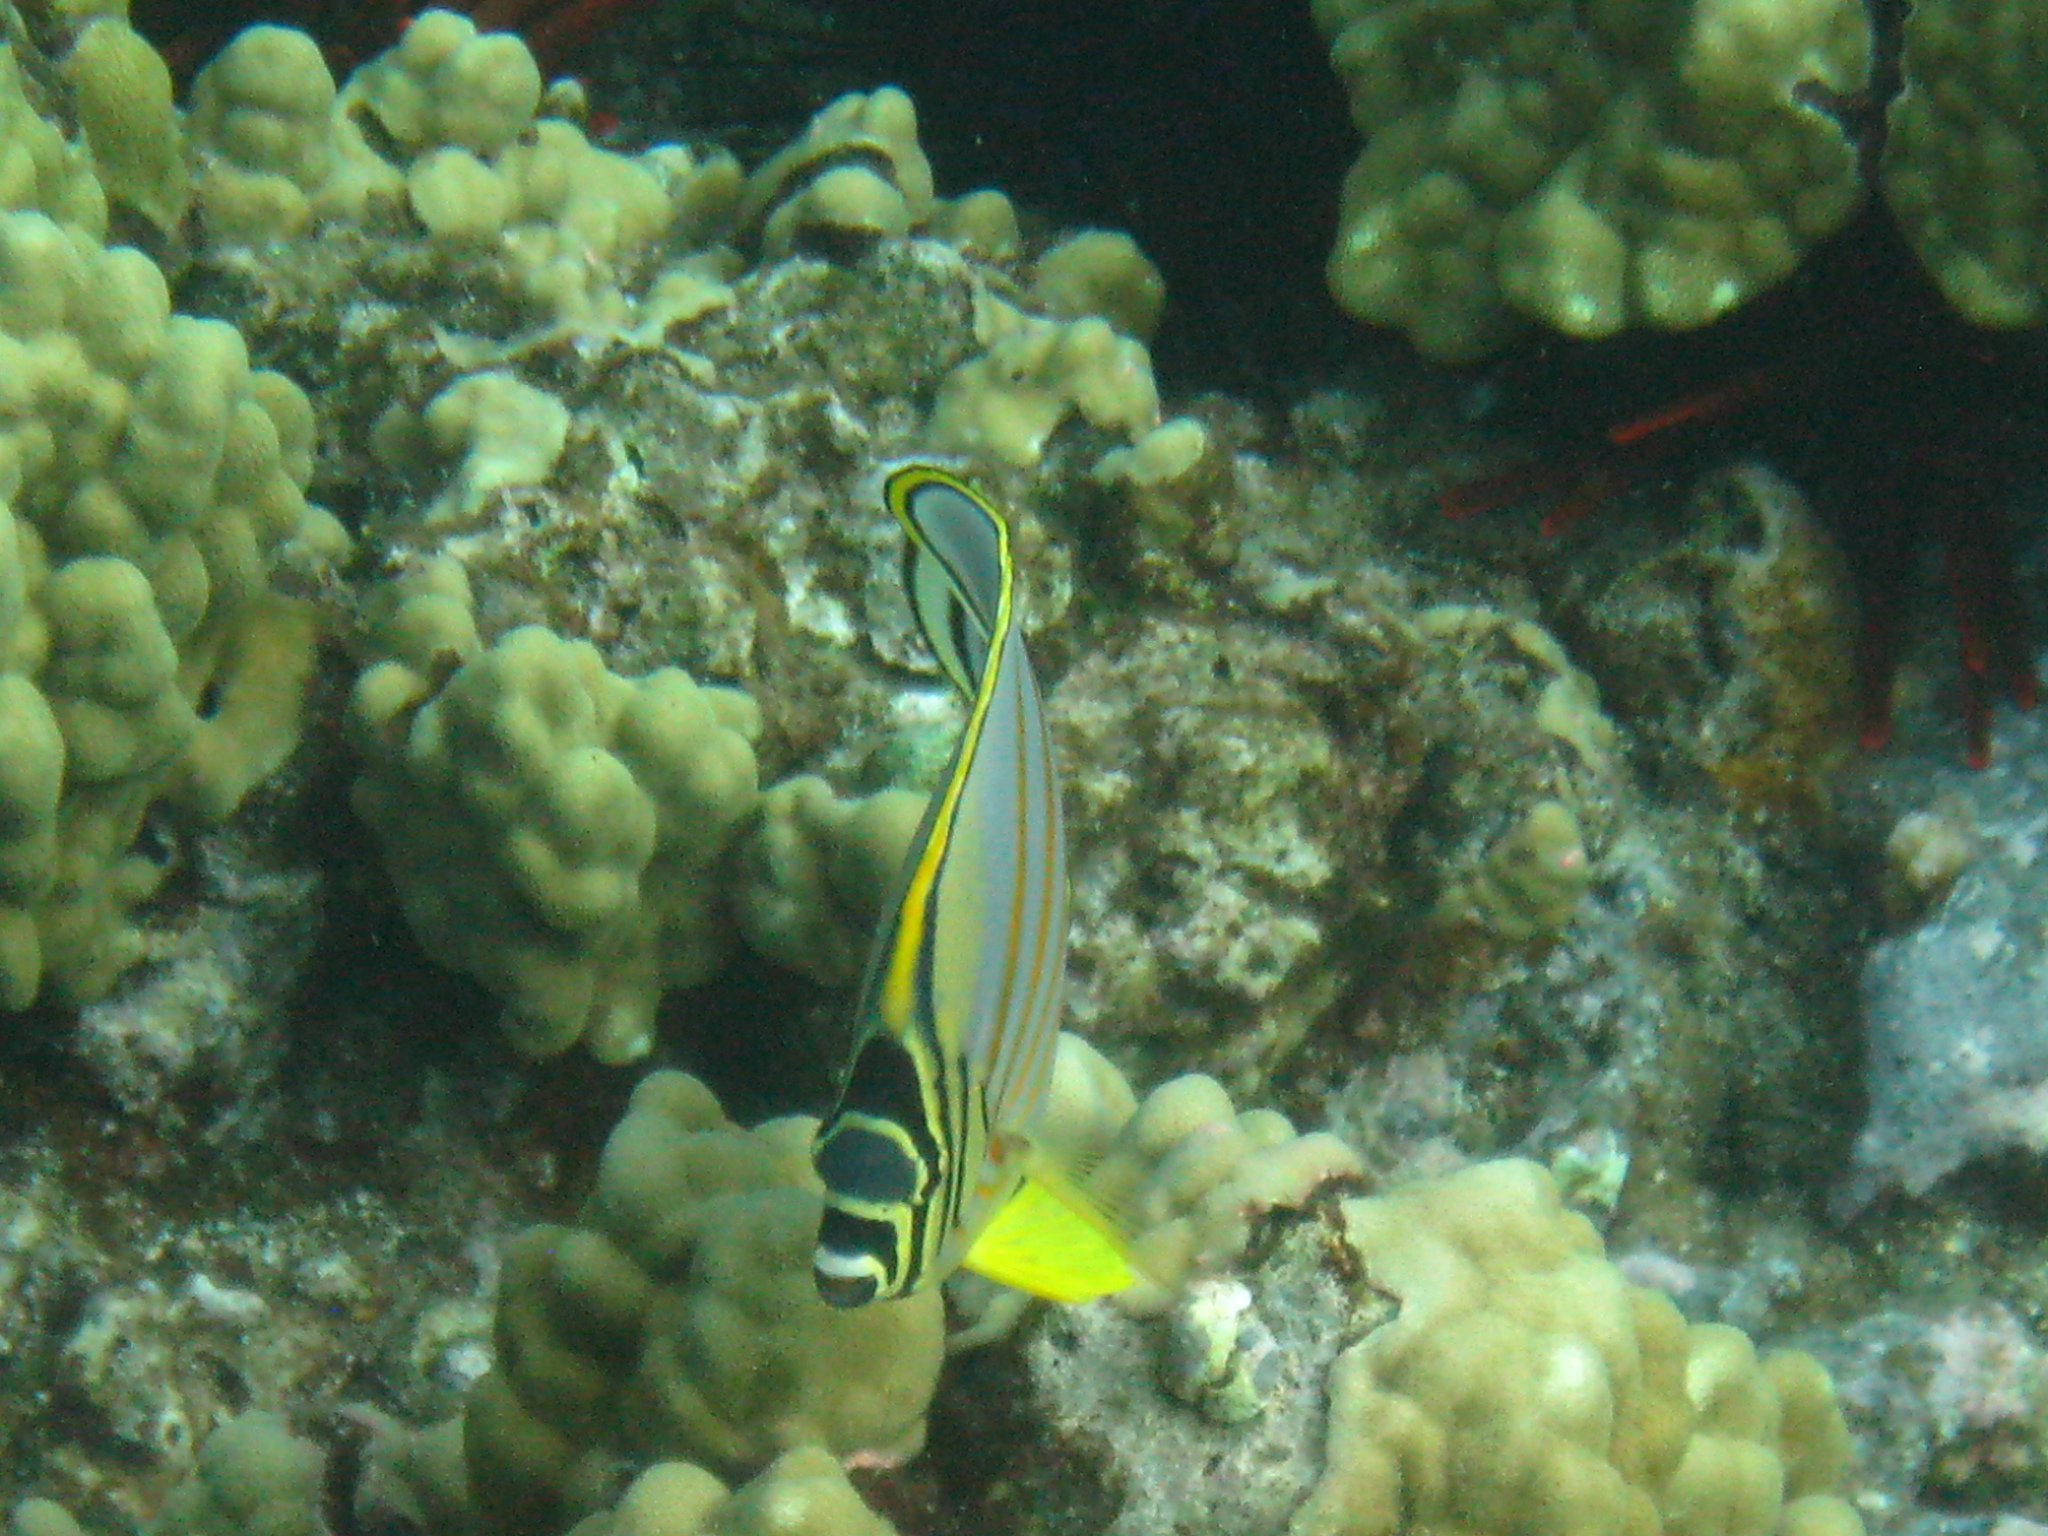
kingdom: Animalia
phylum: Chordata
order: Perciformes
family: Chaetodontidae
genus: Chaetodon
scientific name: Chaetodon ornatissimus
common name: Ornate butterflyfish
